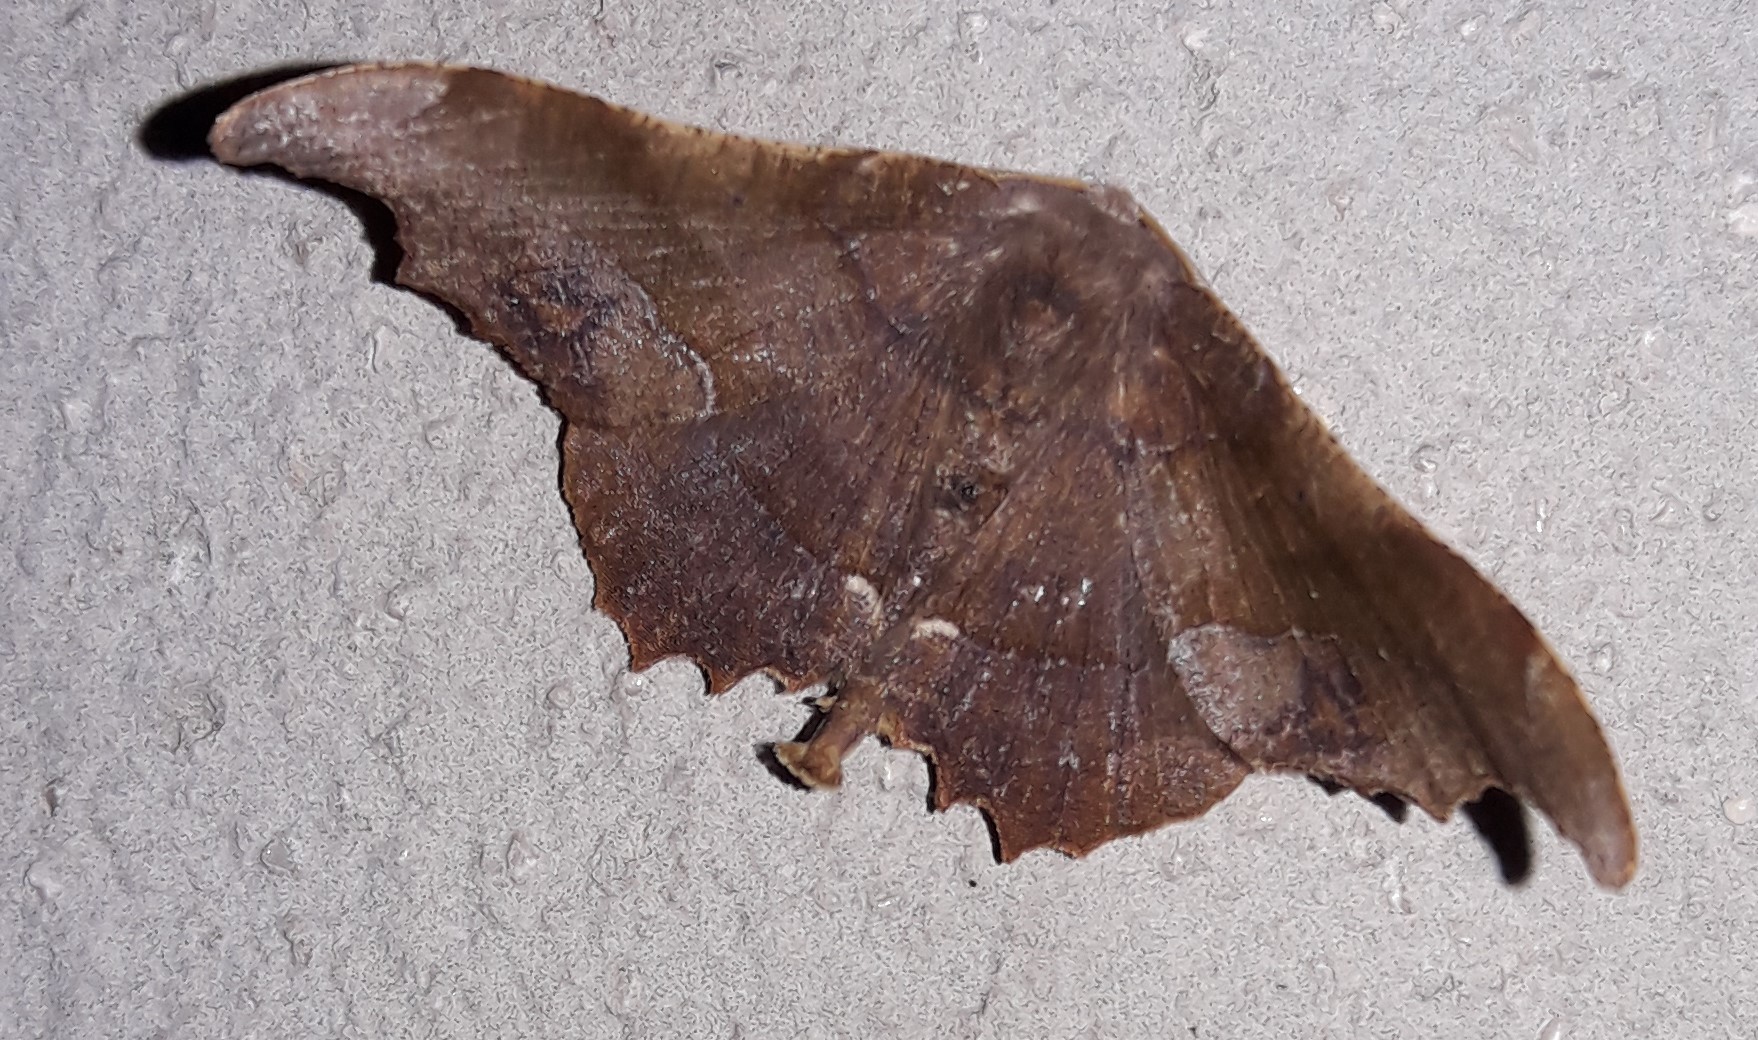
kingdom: Animalia
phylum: Arthropoda
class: Insecta
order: Lepidoptera
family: Geometridae
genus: Patalene
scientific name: Patalene aenetusaria
